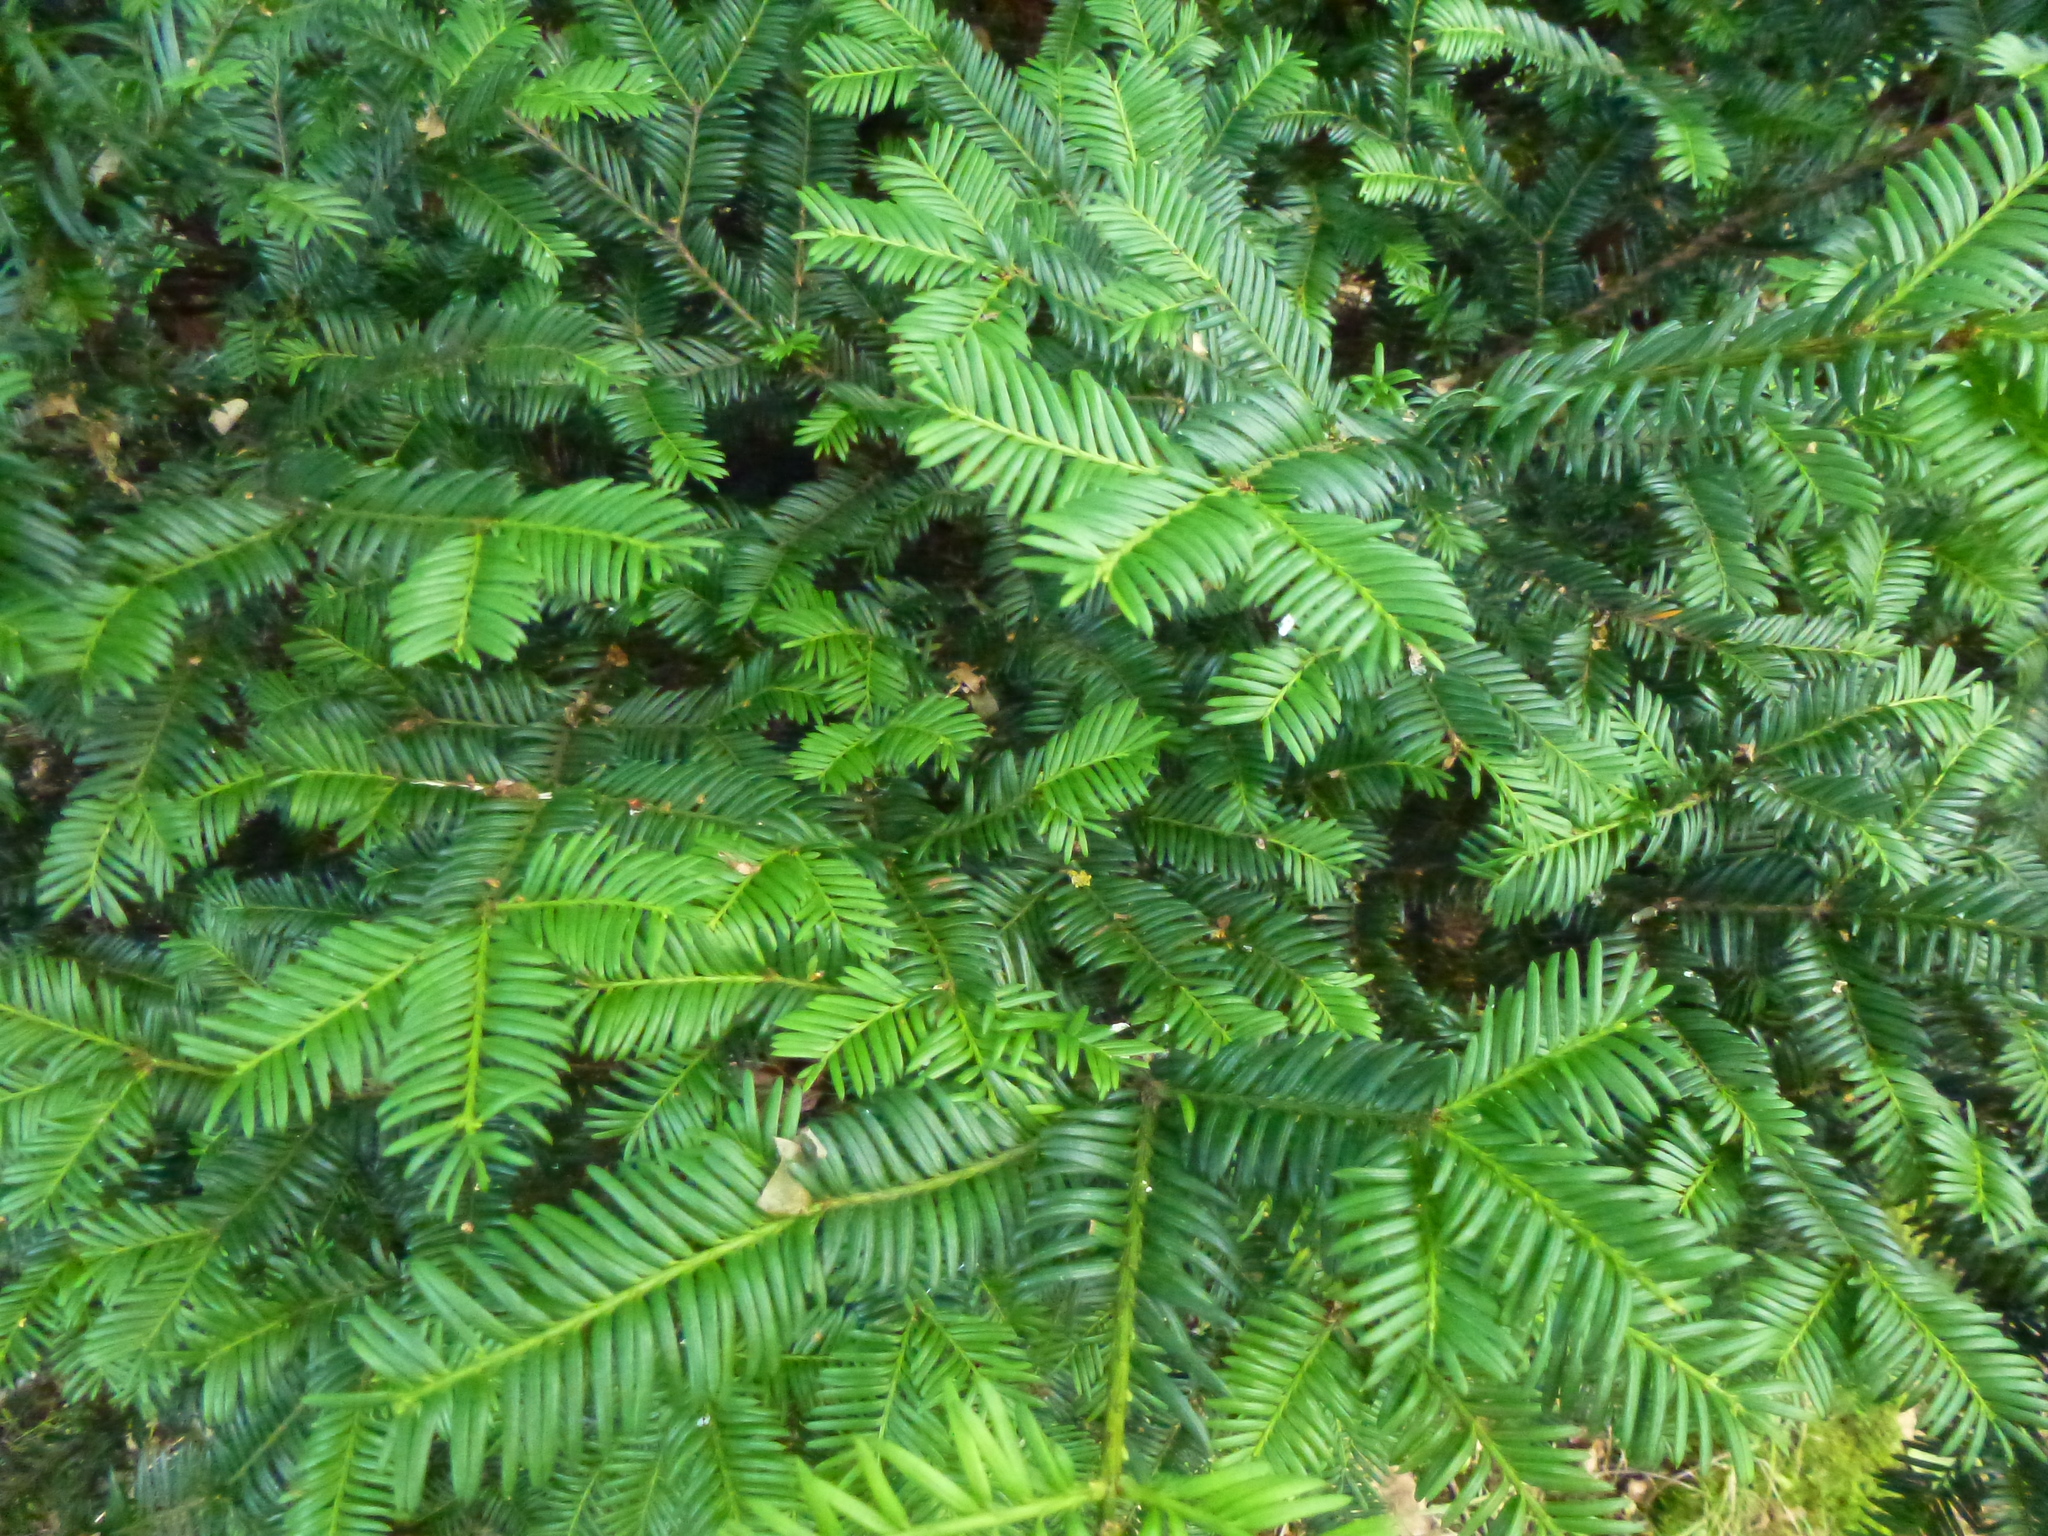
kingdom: Plantae
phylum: Tracheophyta
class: Pinopsida
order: Pinales
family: Taxaceae
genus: Taxus
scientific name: Taxus baccata
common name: Yew
